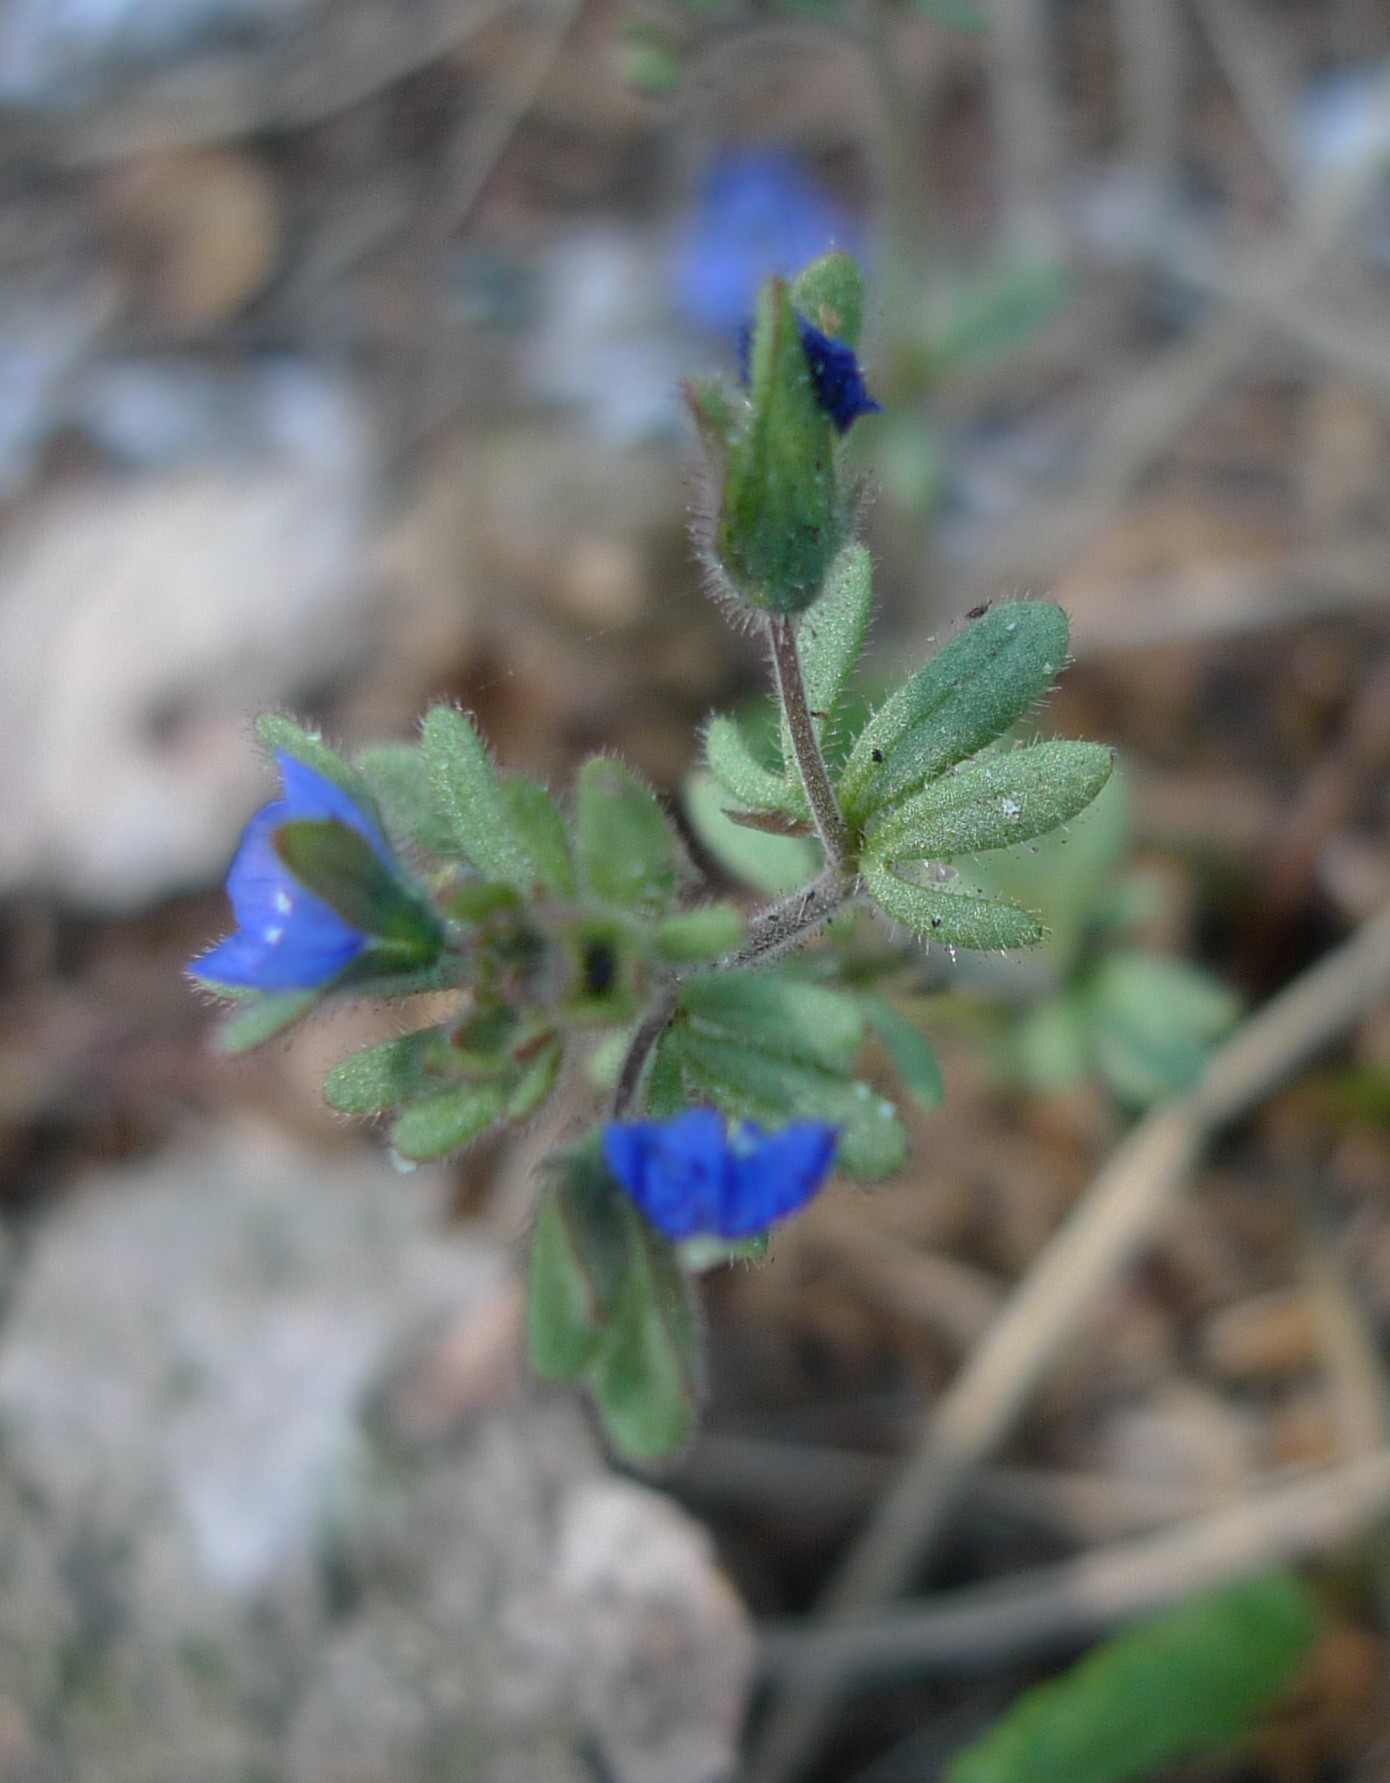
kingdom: Plantae
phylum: Tracheophyta
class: Magnoliopsida
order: Lamiales
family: Plantaginaceae
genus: Veronica
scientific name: Veronica triphyllos
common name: Fingered speedwell
